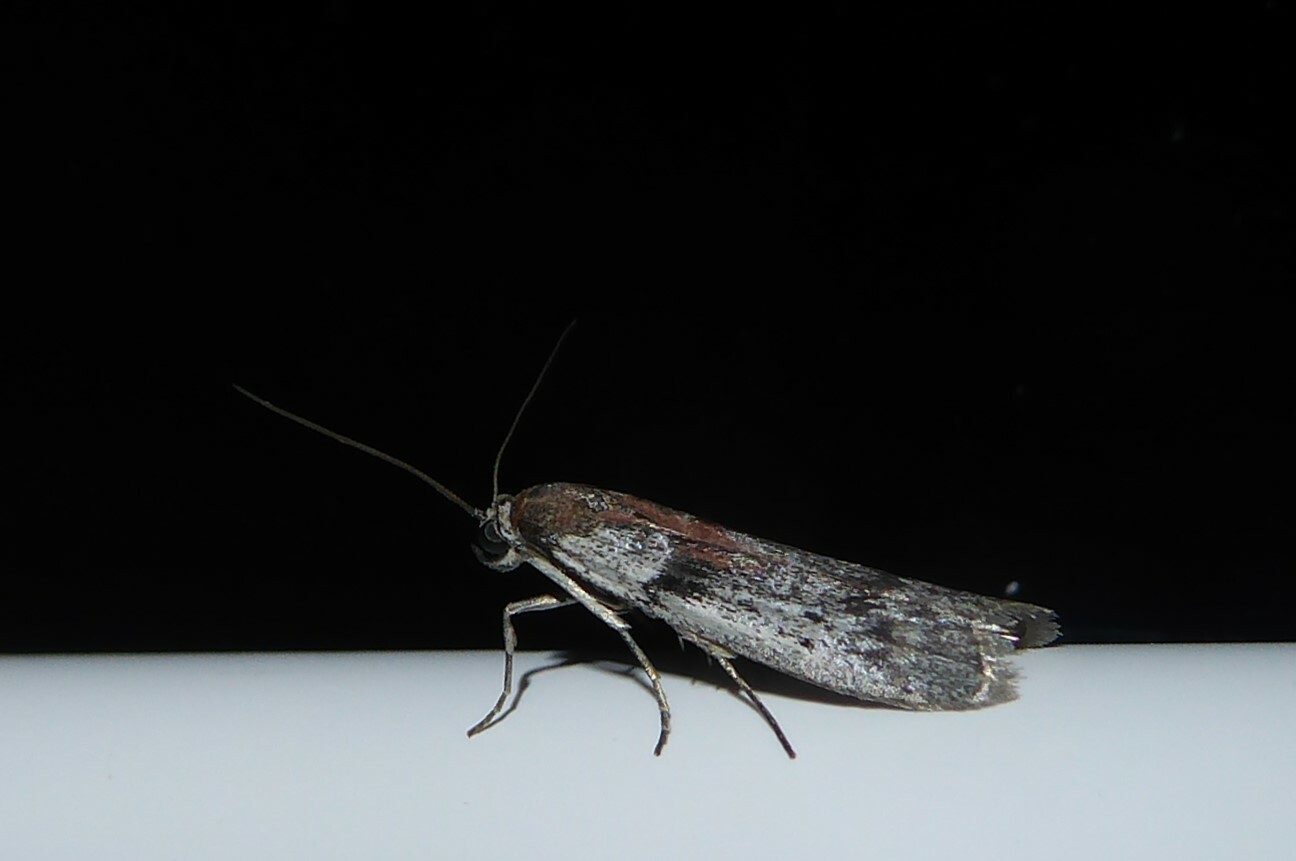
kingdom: Animalia
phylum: Arthropoda
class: Insecta
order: Lepidoptera
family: Pyralidae
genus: Patagoniodes
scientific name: Patagoniodes farinaria
